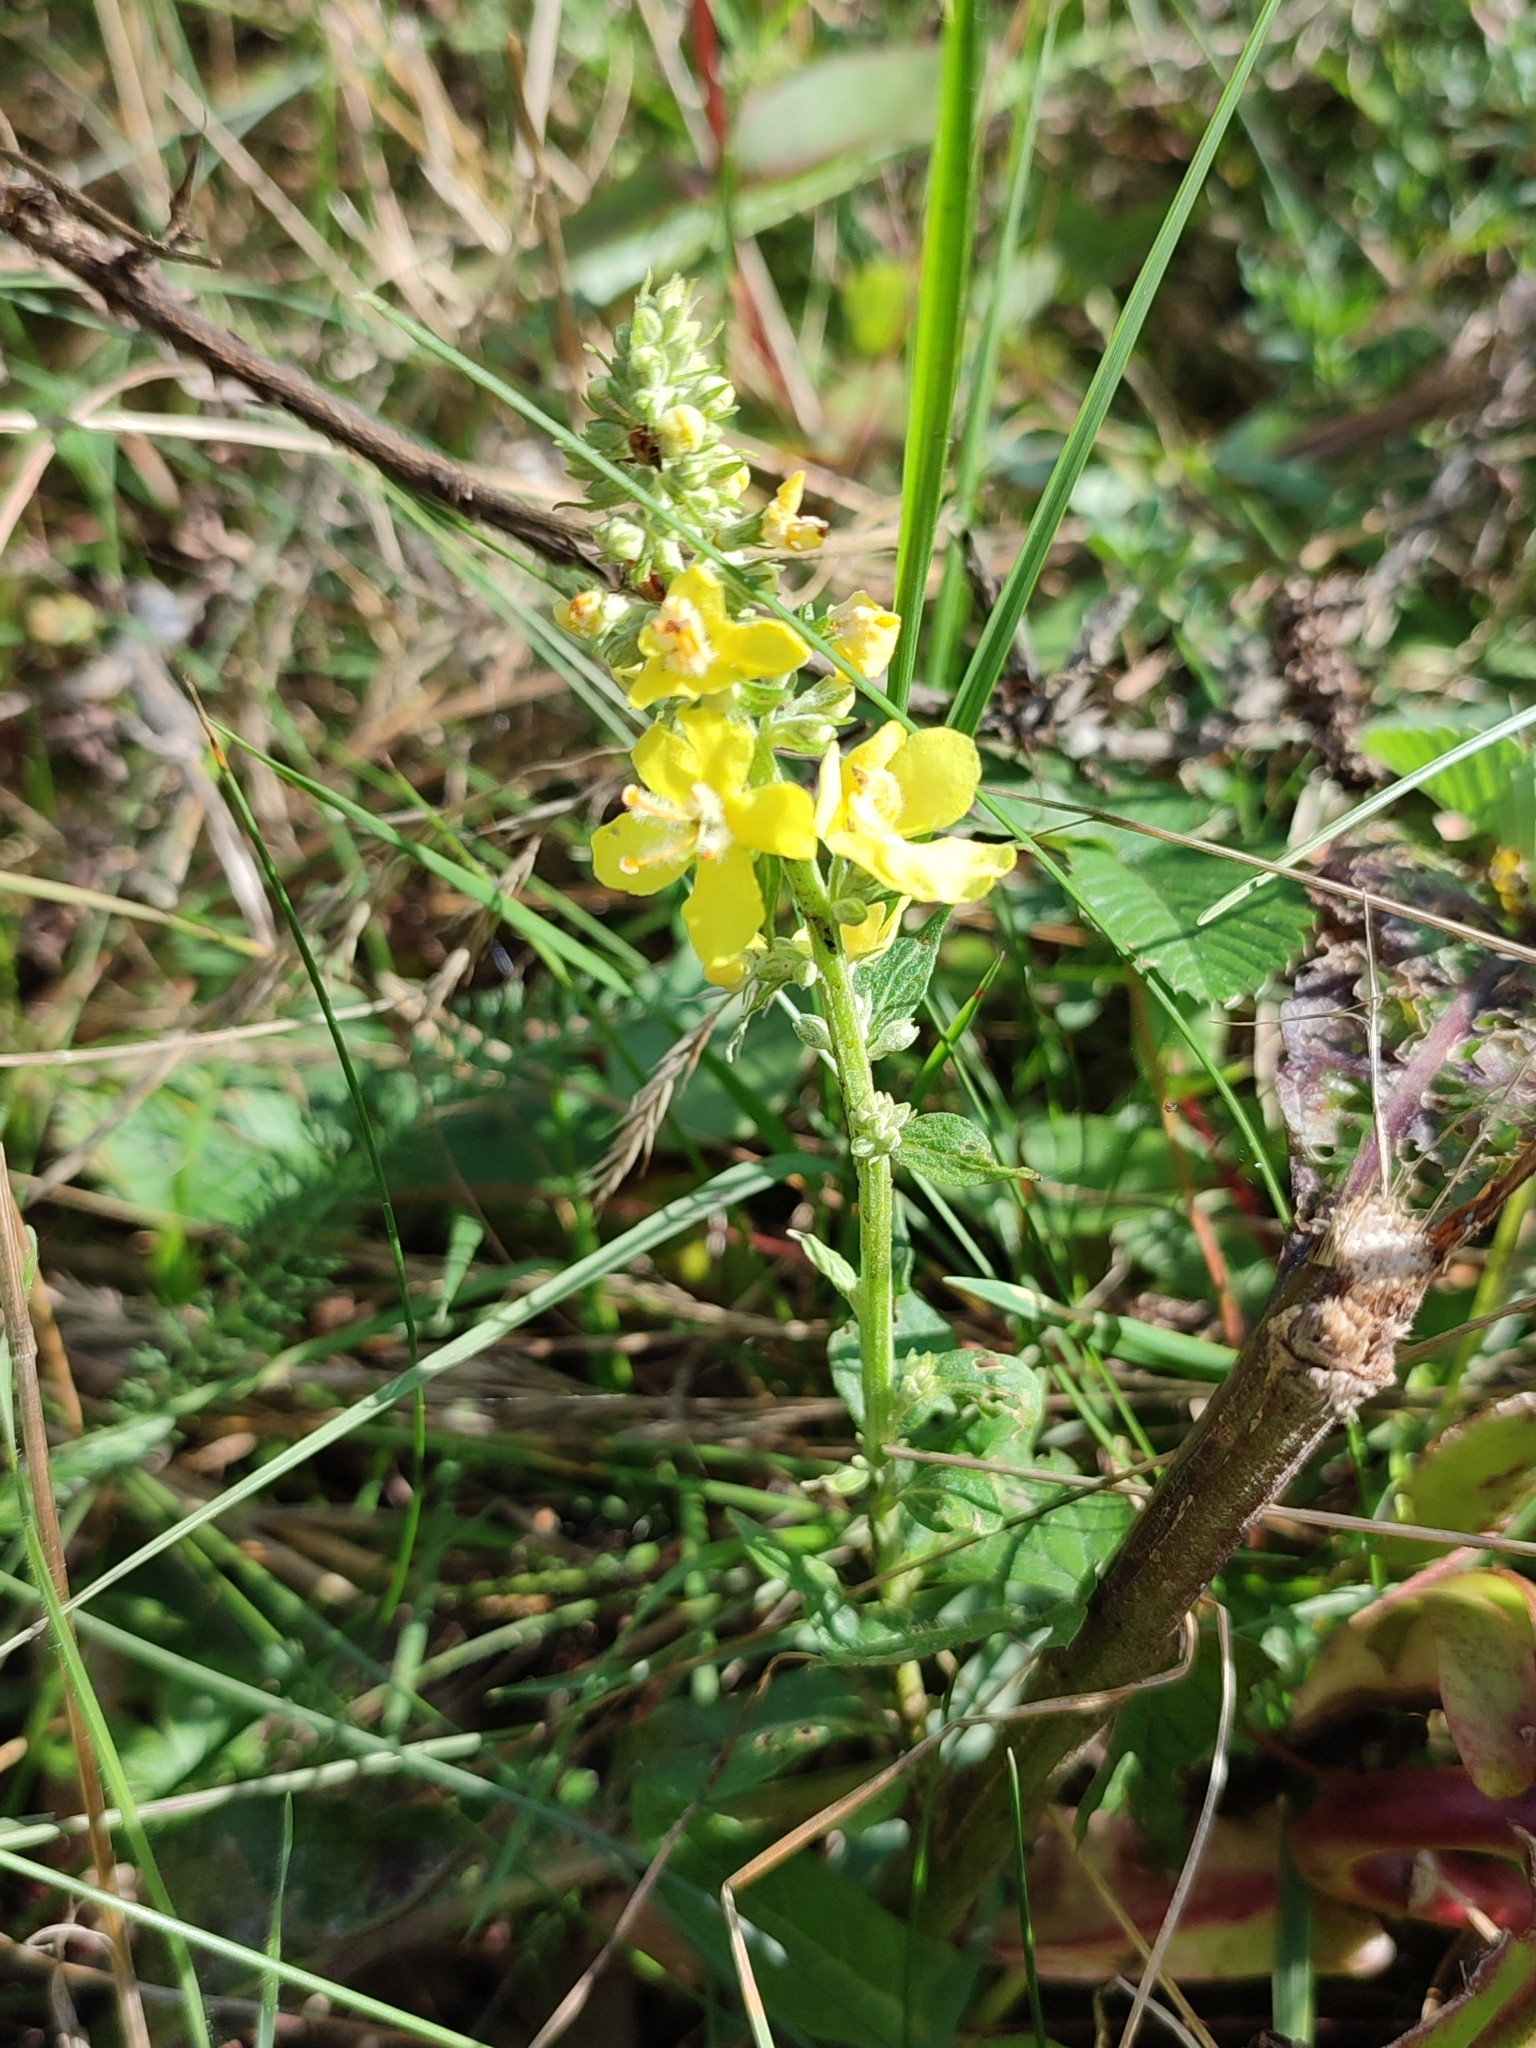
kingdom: Plantae
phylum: Tracheophyta
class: Magnoliopsida
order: Lamiales
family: Scrophulariaceae
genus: Verbascum
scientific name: Verbascum lychnitis
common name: White mullein
